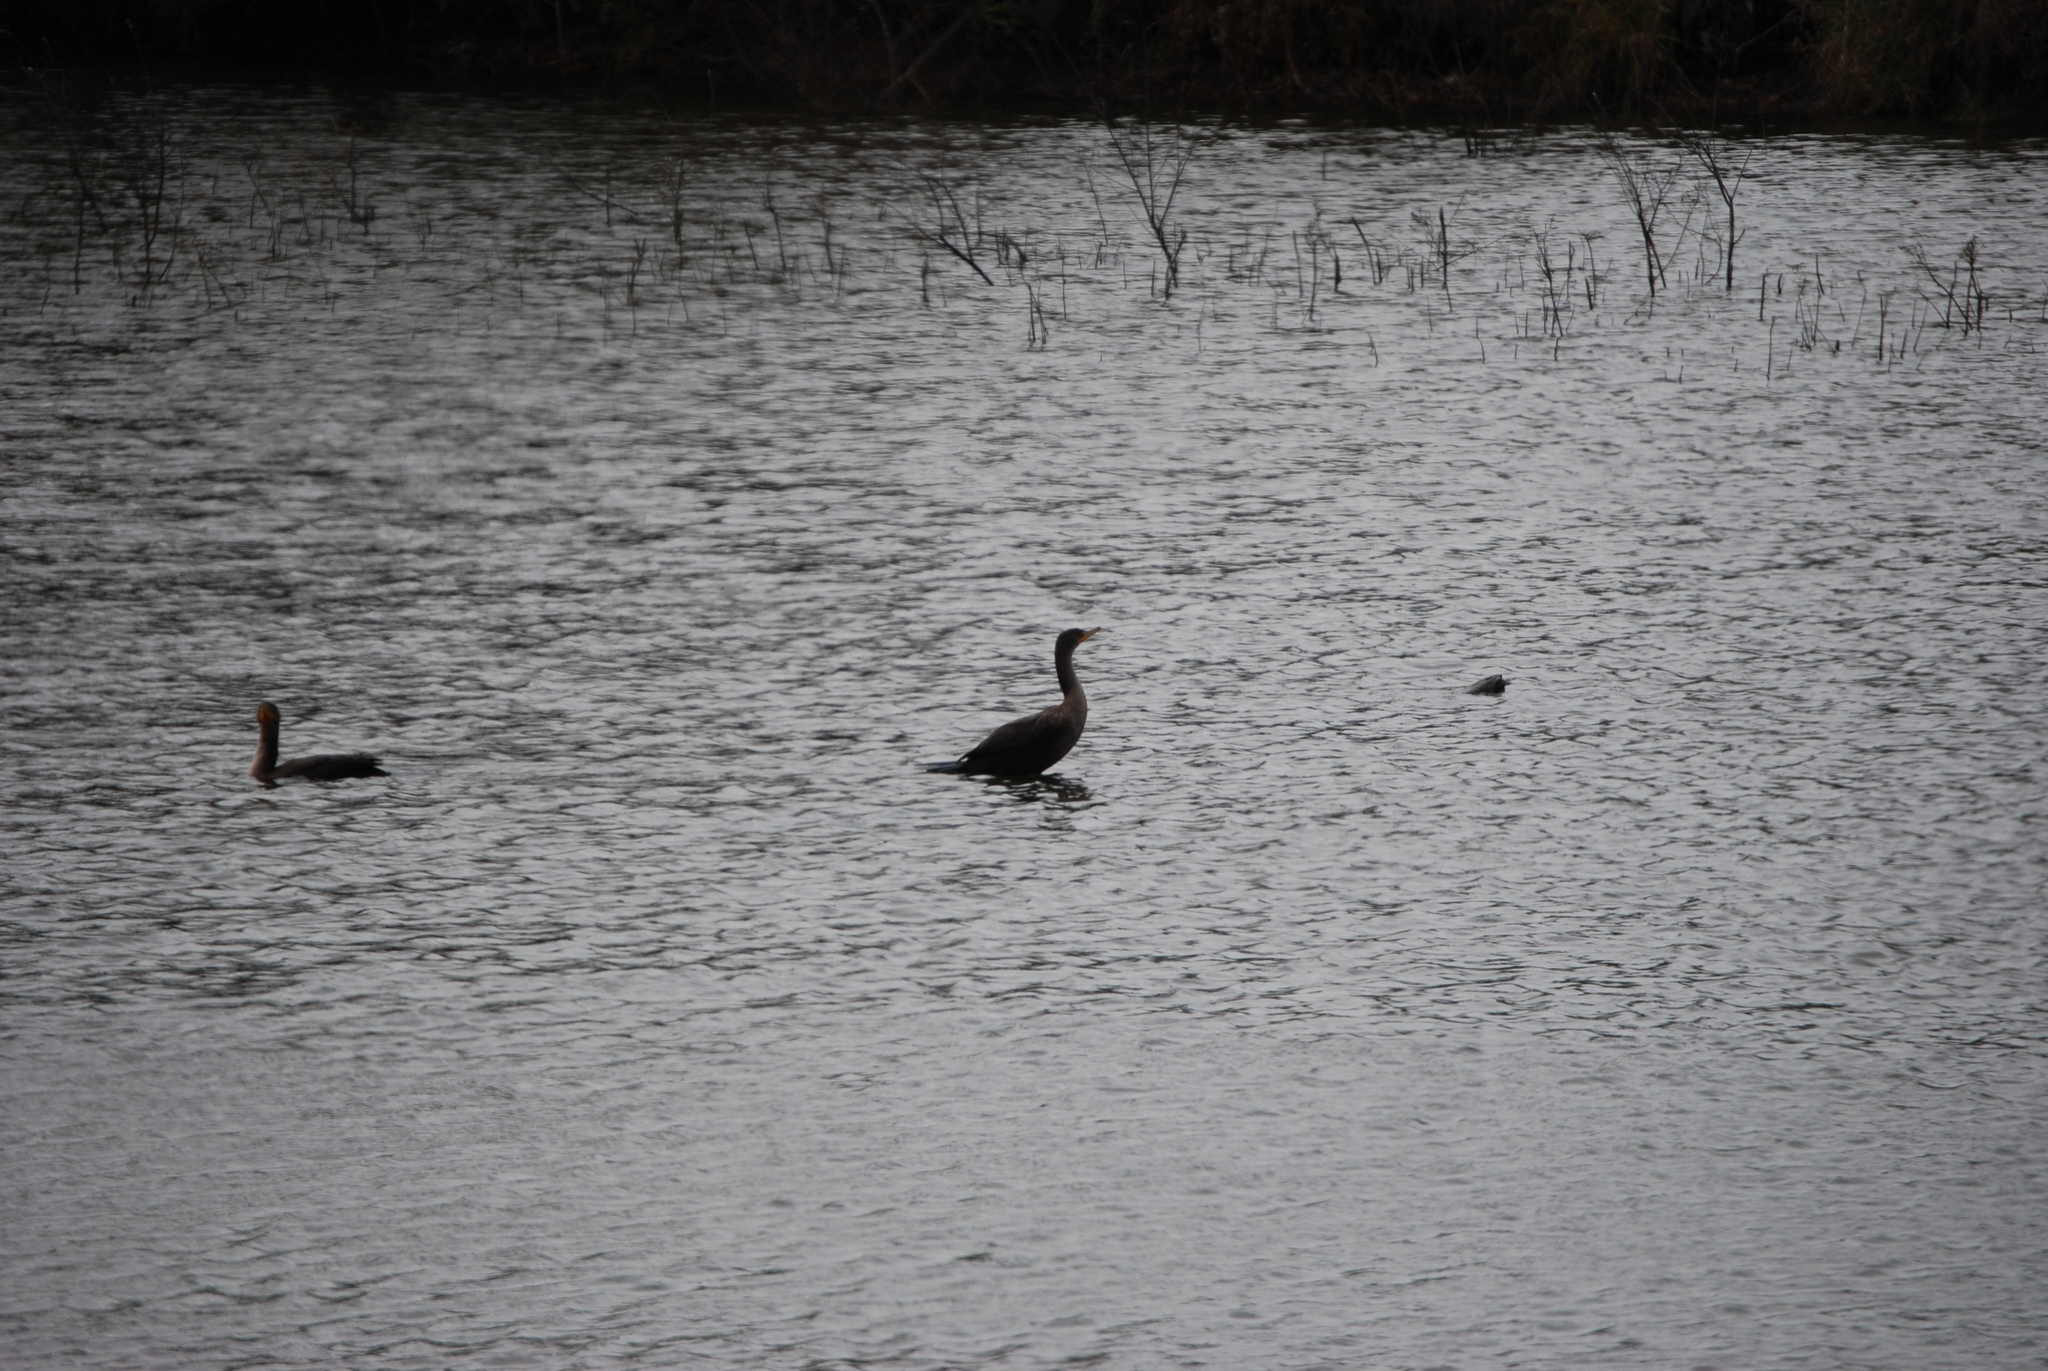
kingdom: Animalia
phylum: Chordata
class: Aves
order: Suliformes
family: Phalacrocoracidae
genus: Phalacrocorax
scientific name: Phalacrocorax auritus
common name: Double-crested cormorant
